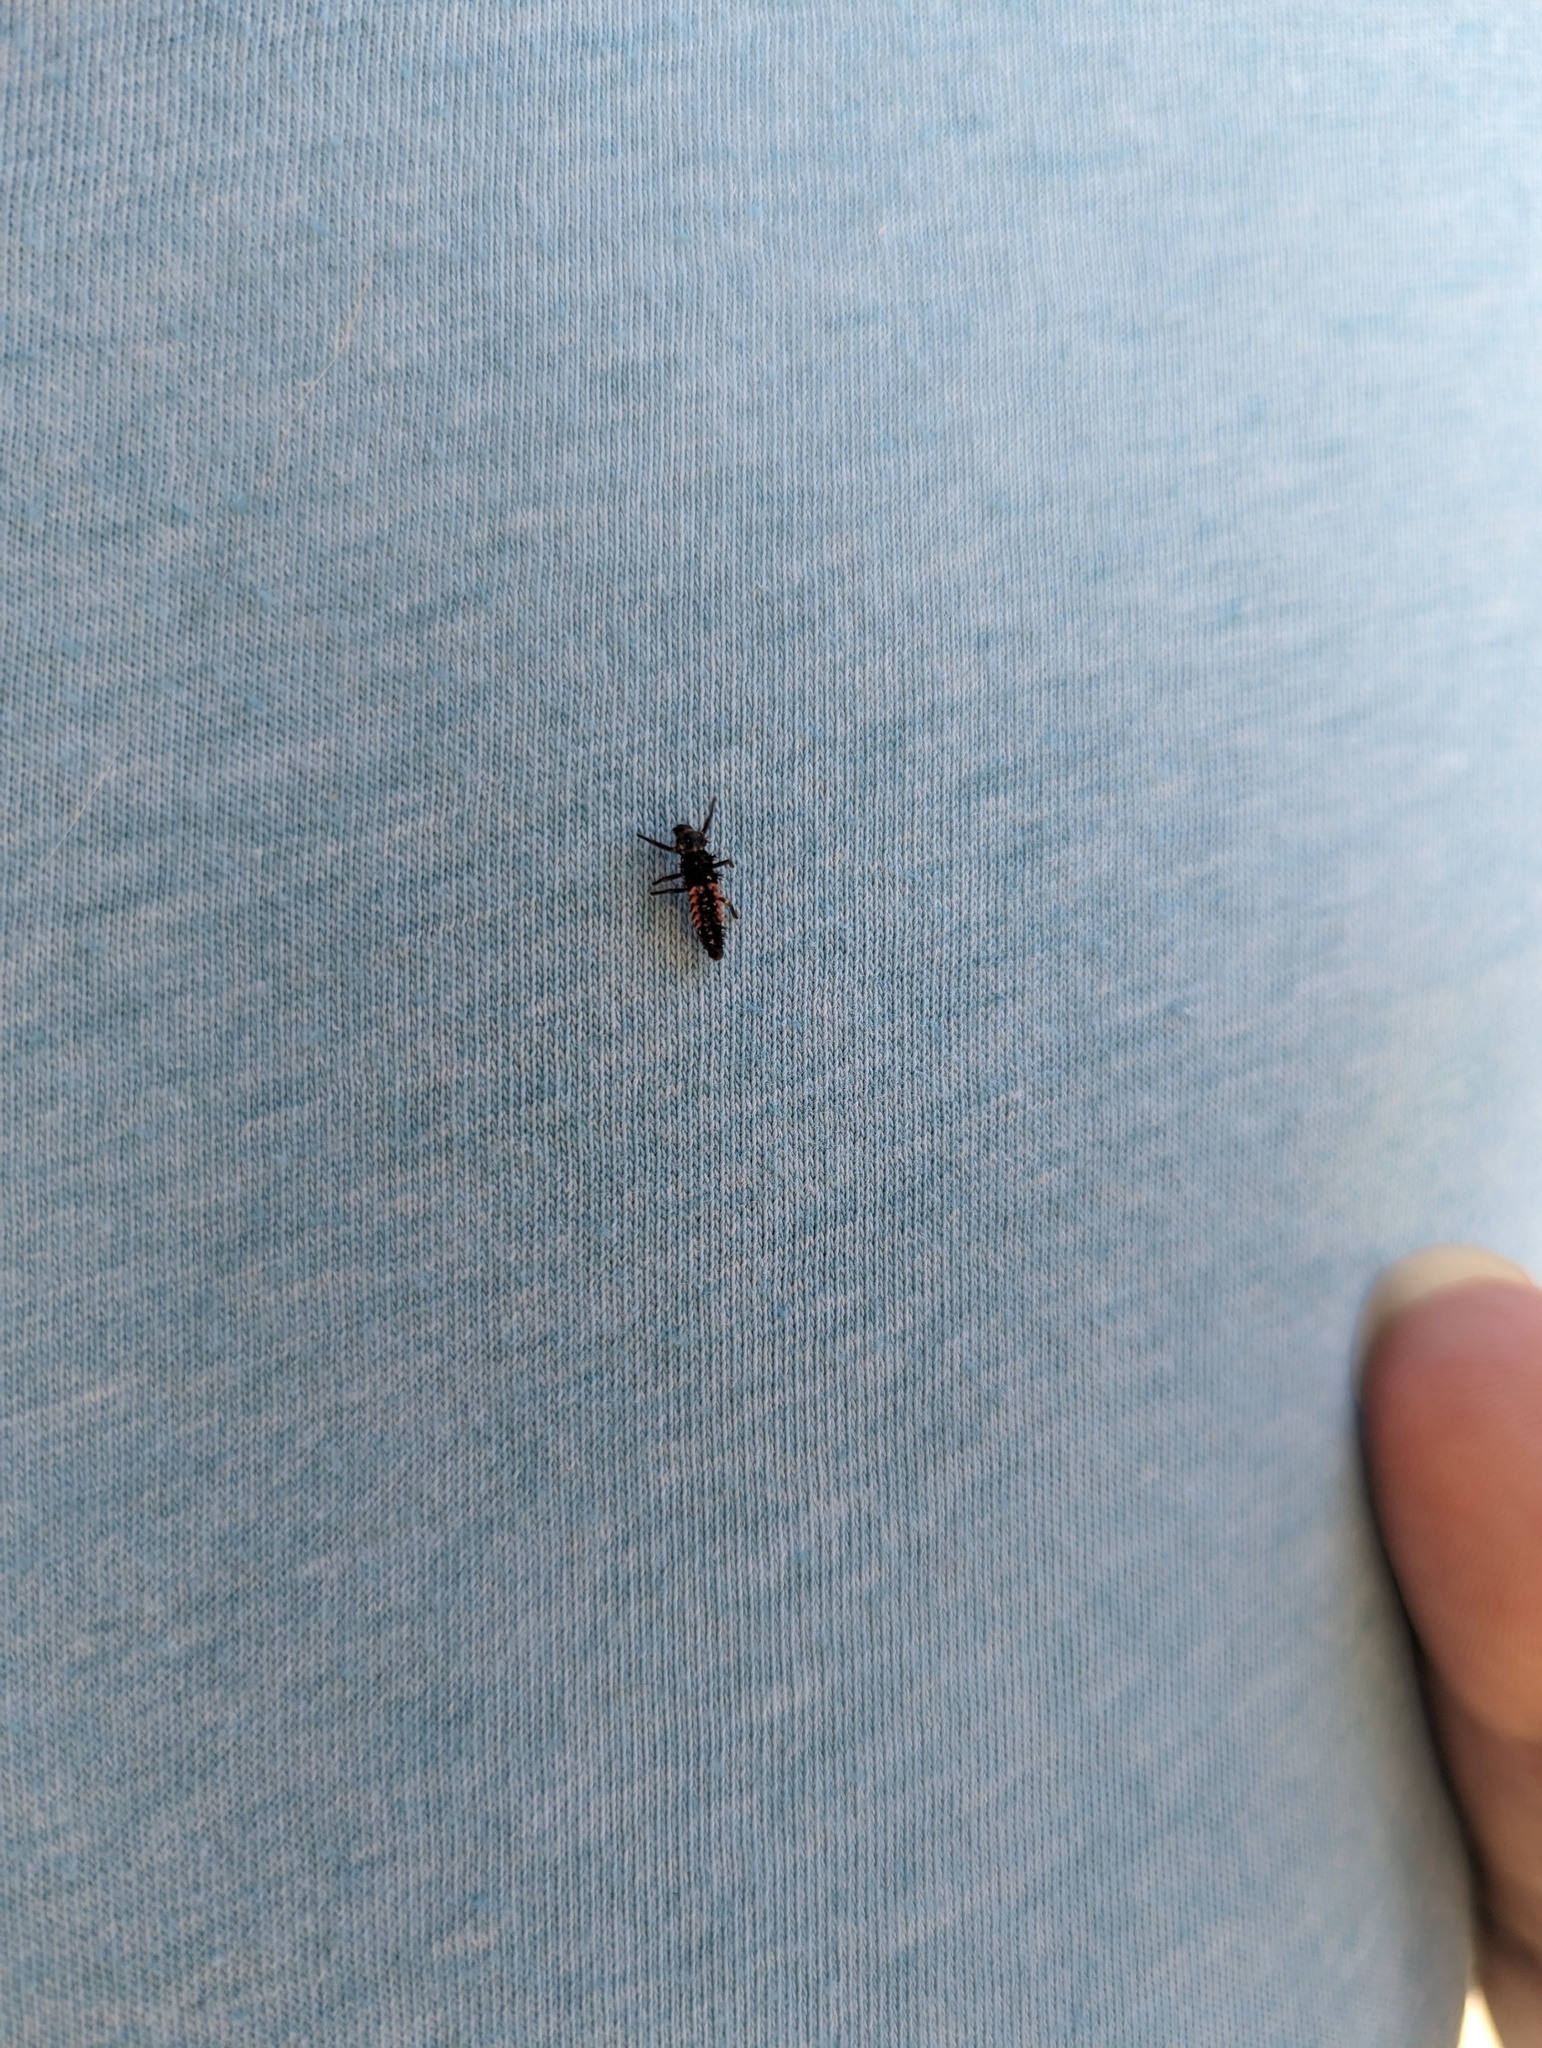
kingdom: Animalia
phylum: Arthropoda
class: Insecta
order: Coleoptera
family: Coccinellidae
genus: Harmonia
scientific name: Harmonia axyridis
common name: Harlequin ladybird
